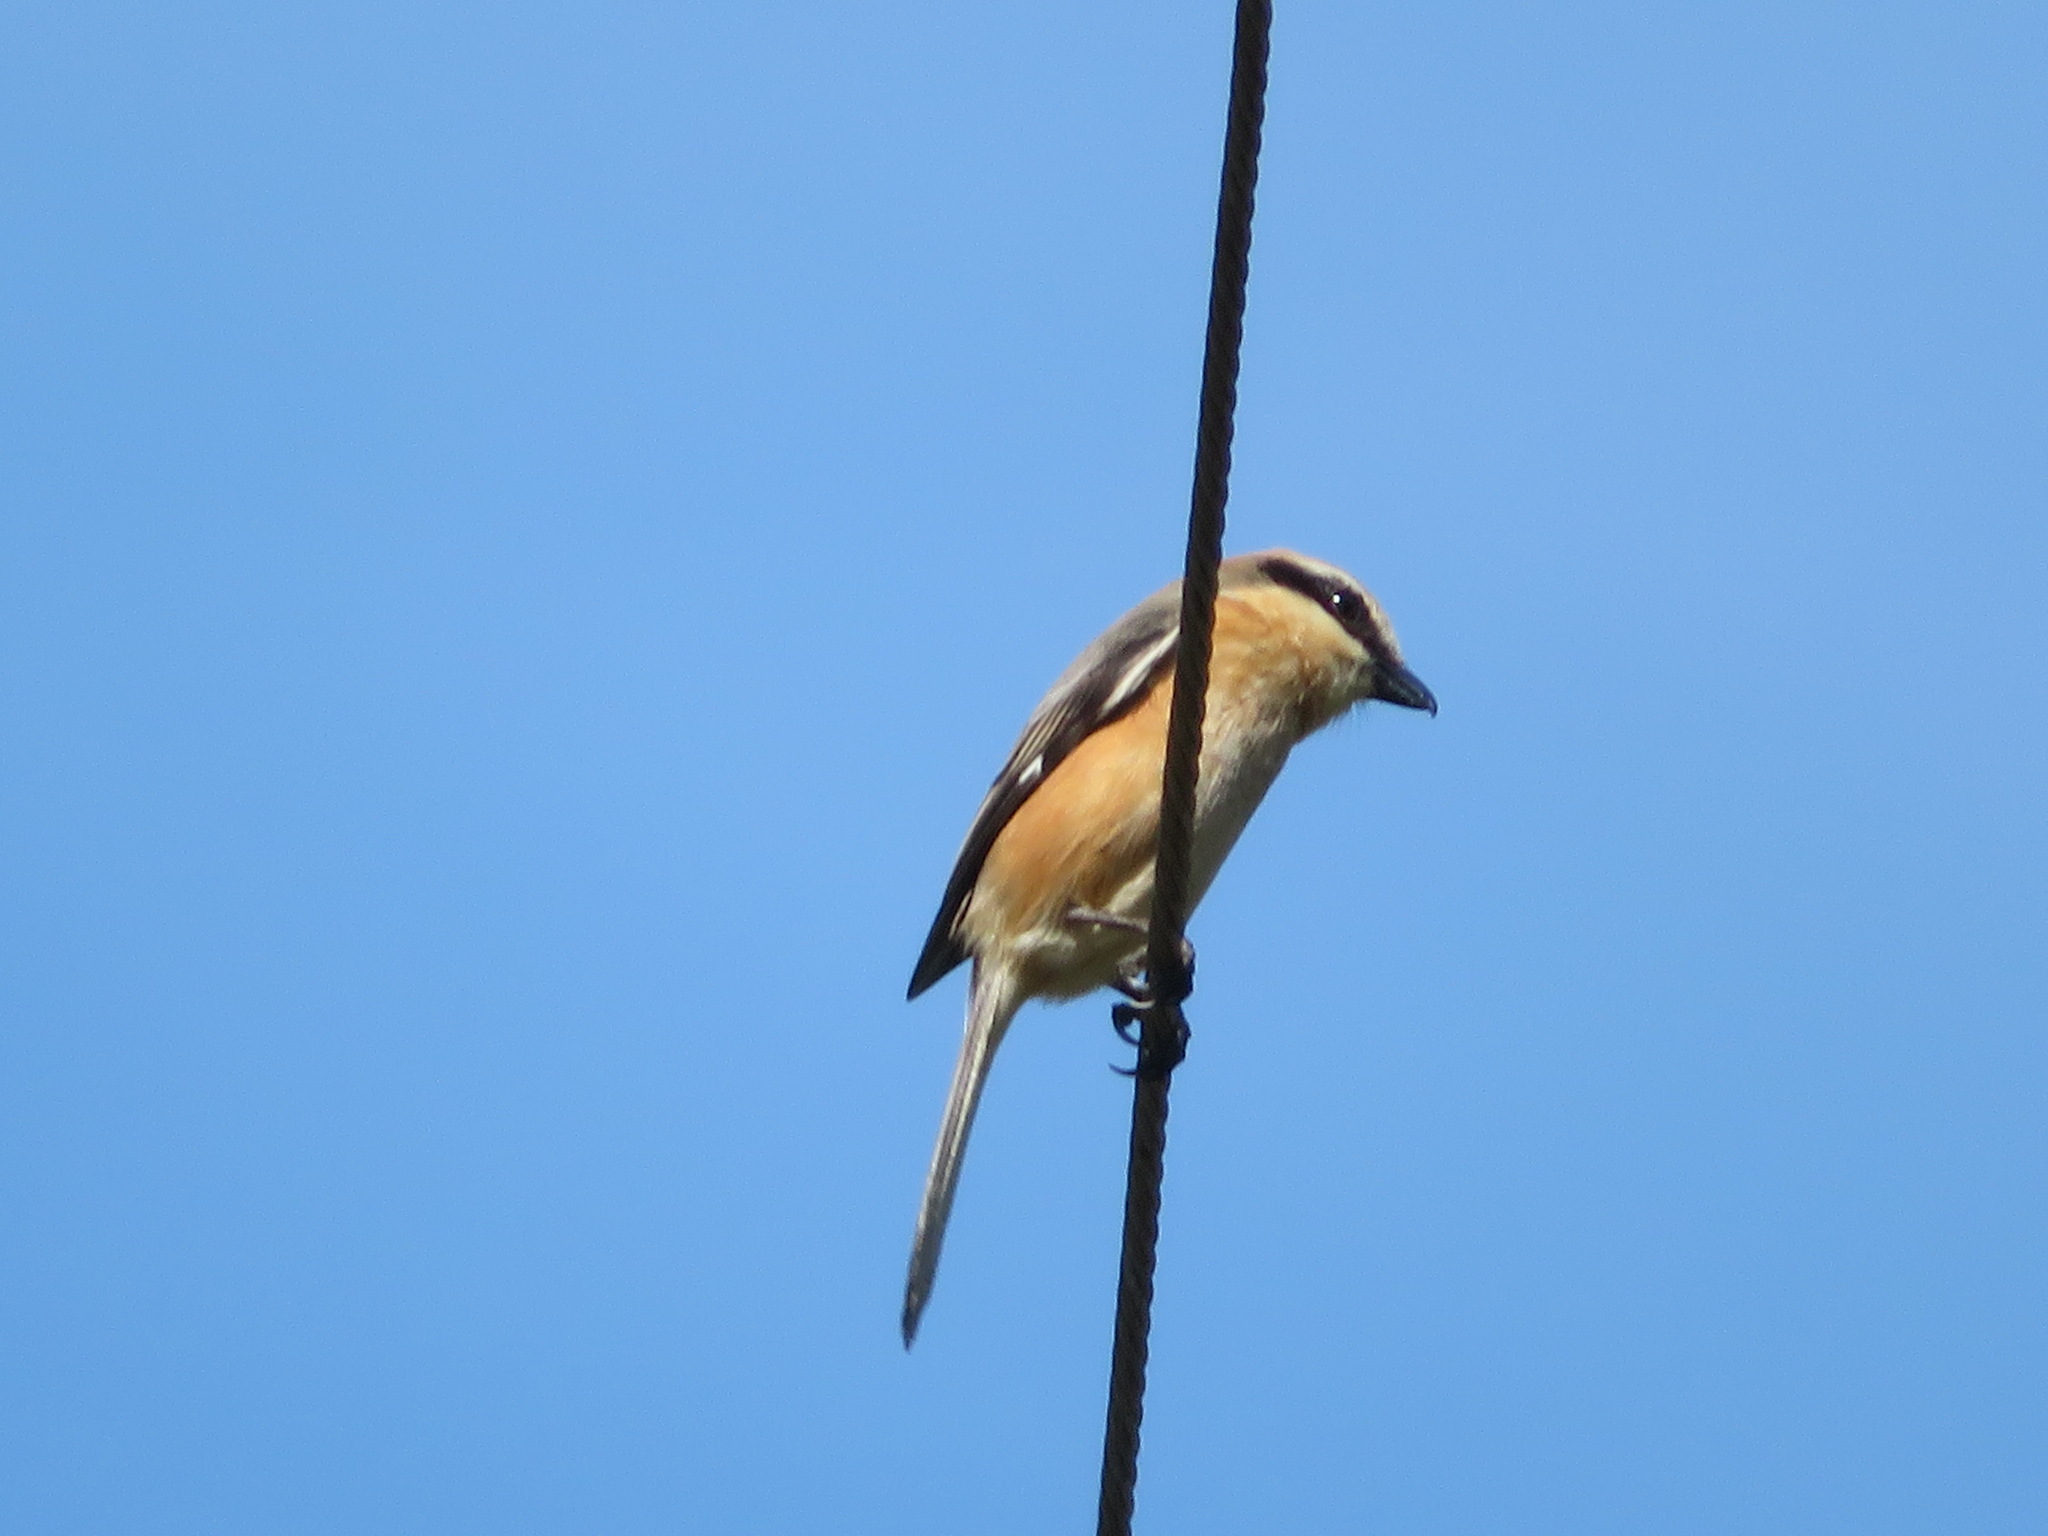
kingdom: Animalia
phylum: Chordata
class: Aves
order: Passeriformes
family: Laniidae
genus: Lanius
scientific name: Lanius bucephalus
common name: Bull-headed shrike
